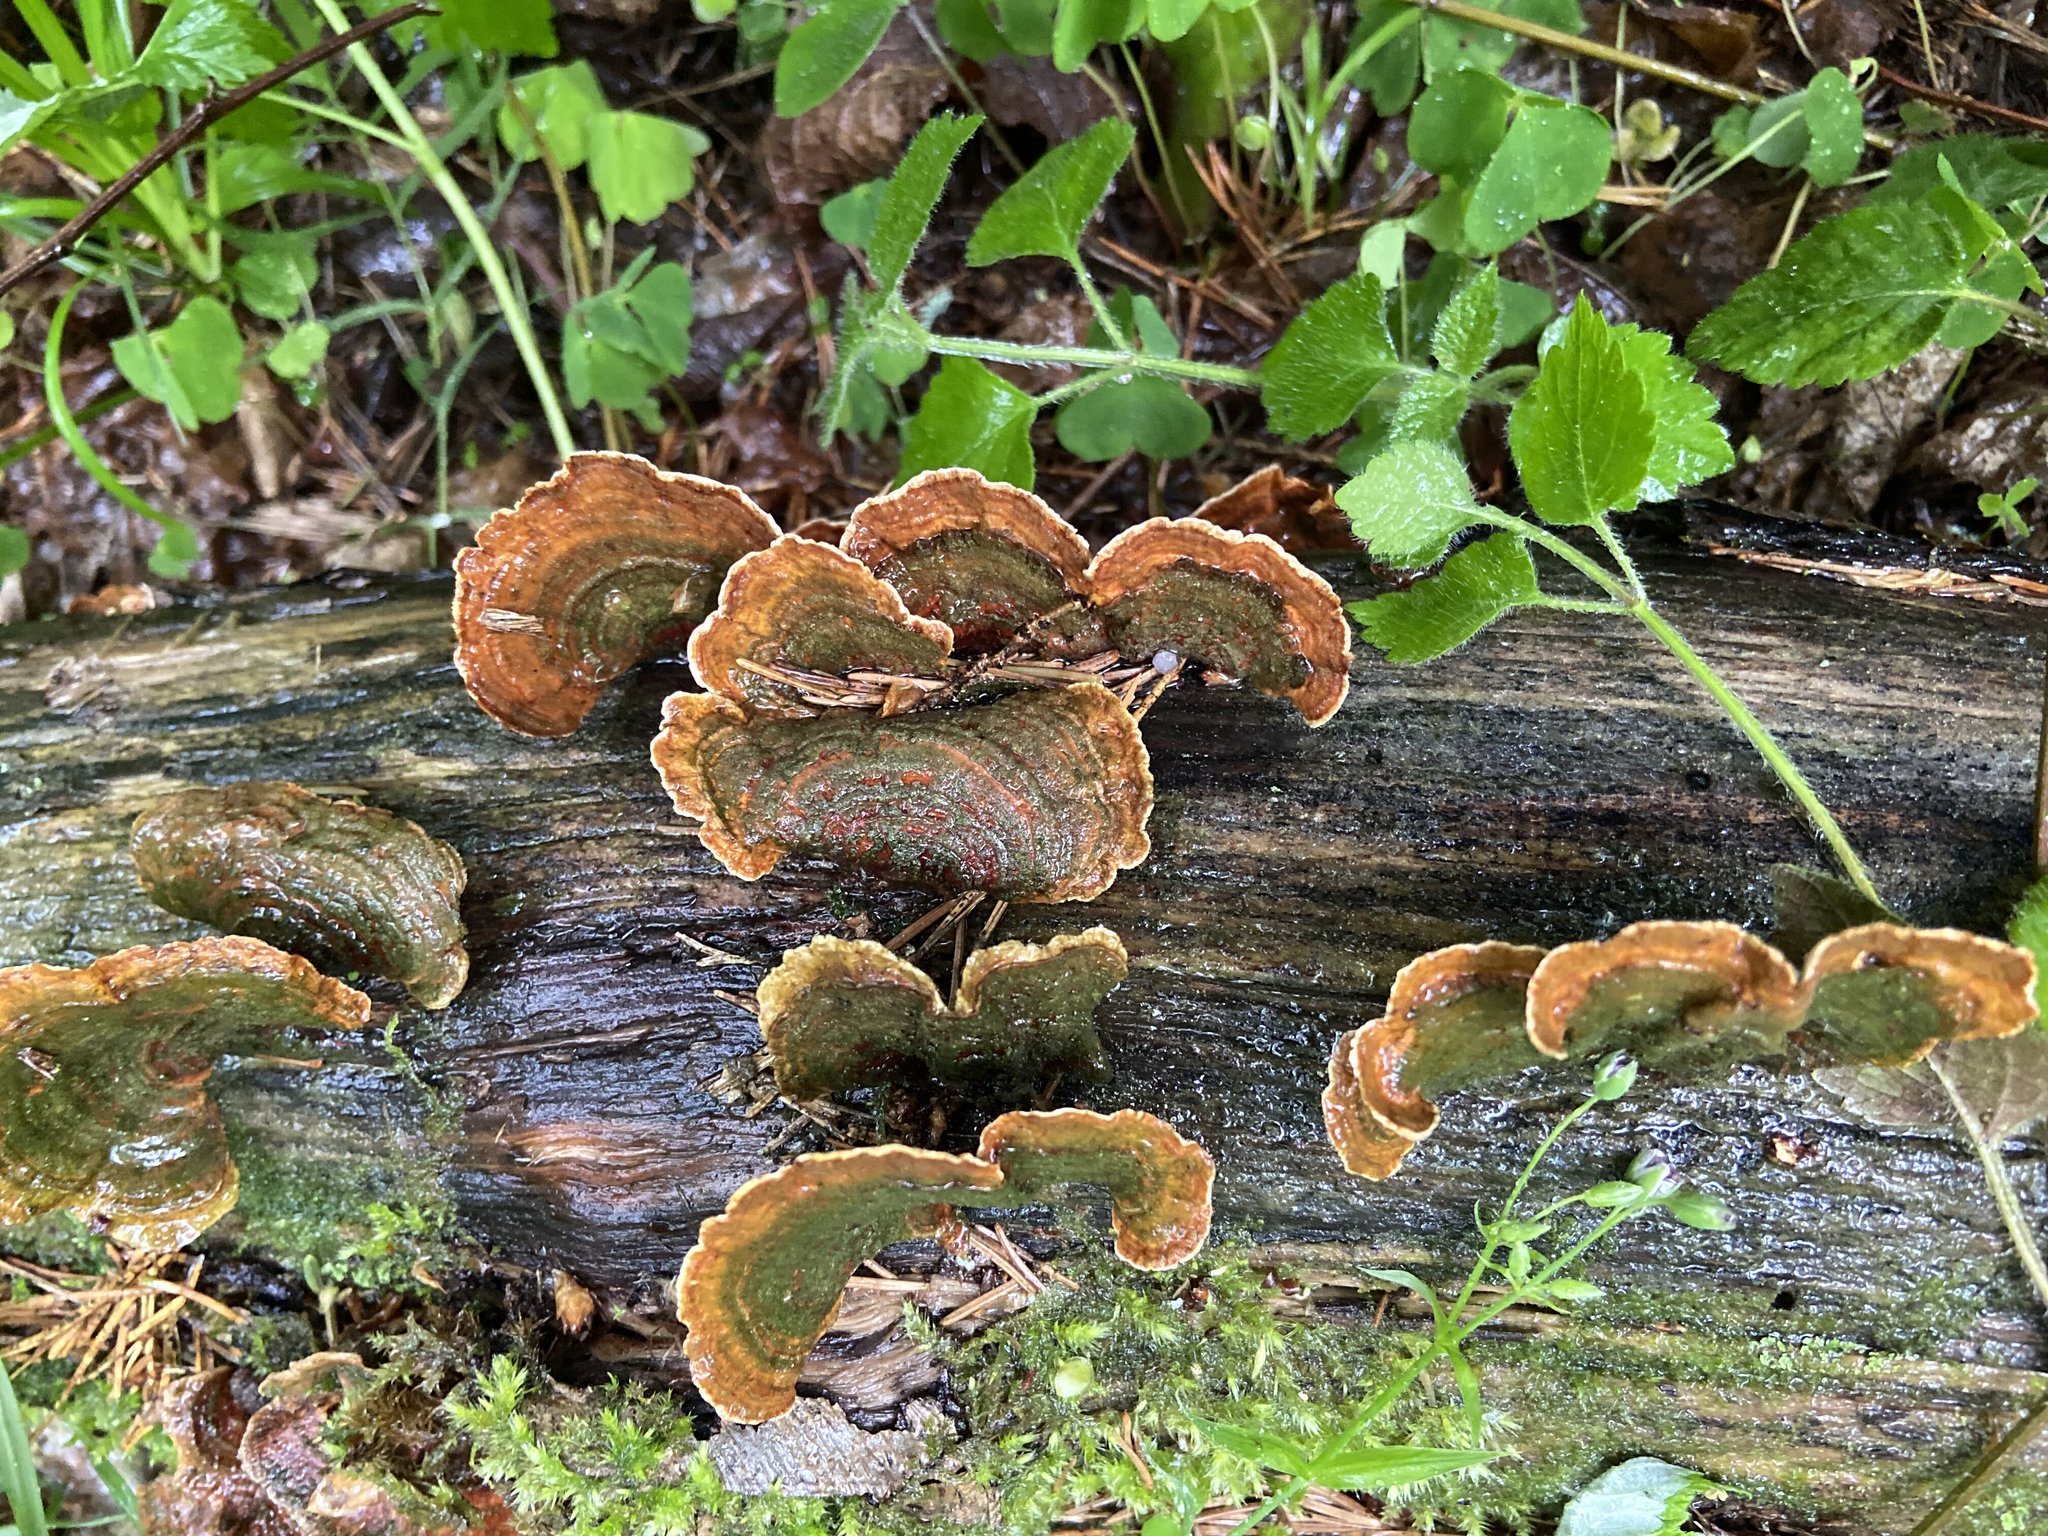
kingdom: Fungi
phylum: Basidiomycota
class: Agaricomycetes
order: Russulales
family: Stereaceae
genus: Stereum
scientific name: Stereum subtomentosum
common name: Yellowing curtain crust
